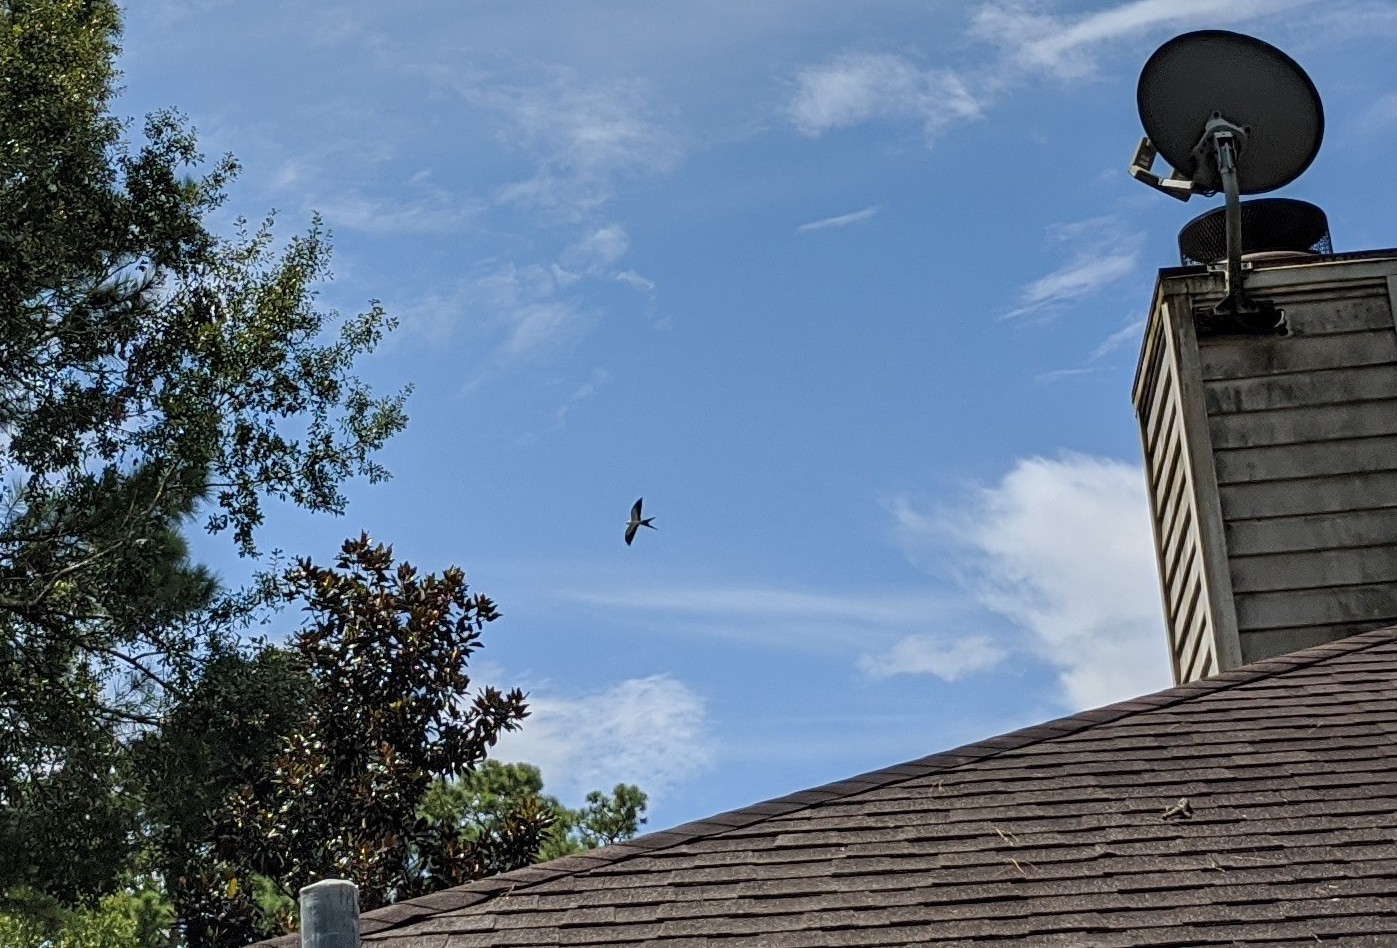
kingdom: Animalia
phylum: Chordata
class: Aves
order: Accipitriformes
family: Accipitridae
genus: Elanoides
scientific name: Elanoides forficatus
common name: Swallow-tailed kite
